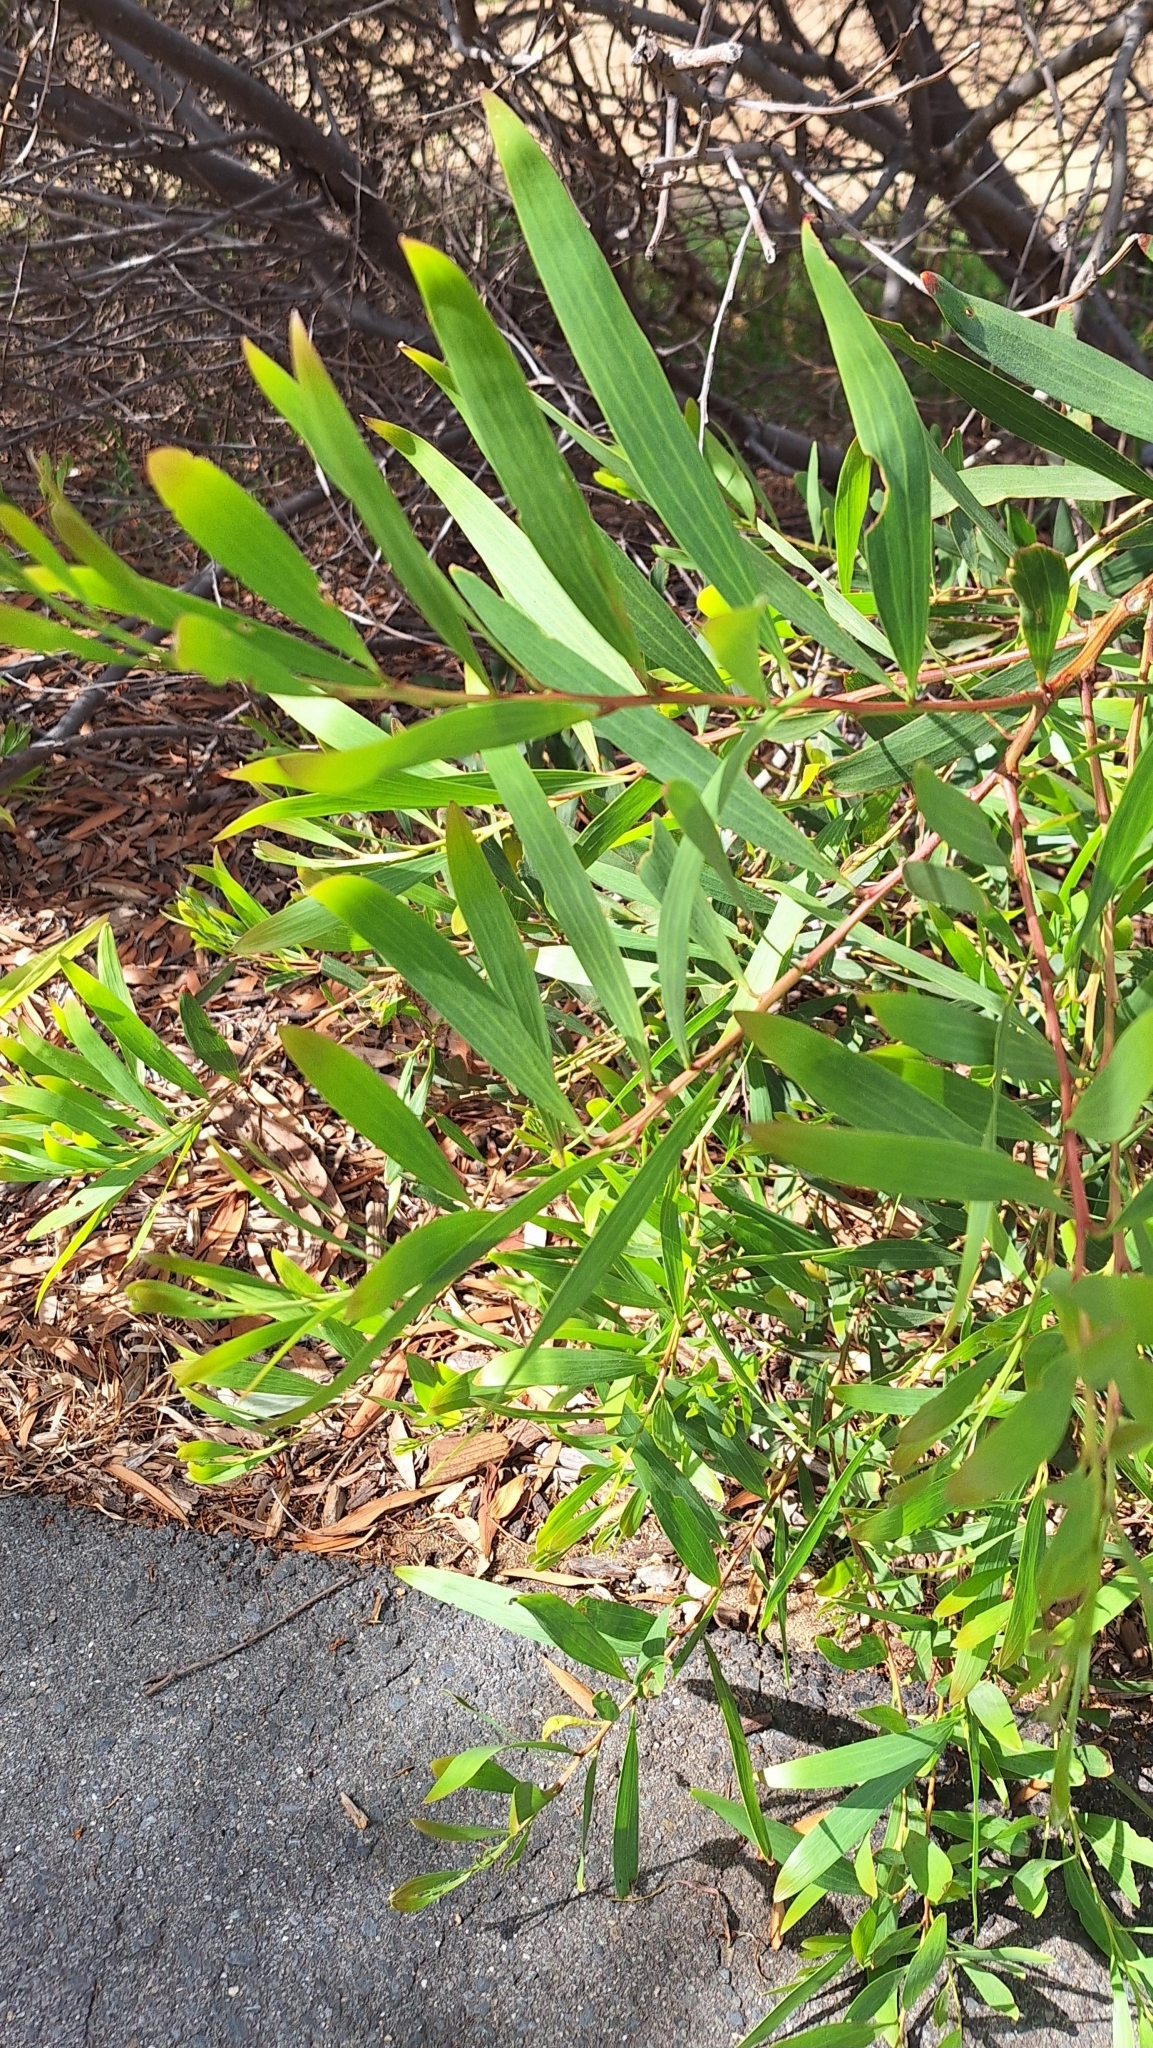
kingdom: Plantae
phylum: Tracheophyta
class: Magnoliopsida
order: Fabales
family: Fabaceae
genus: Acacia
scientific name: Acacia longifolia
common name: Sydney golden wattle
